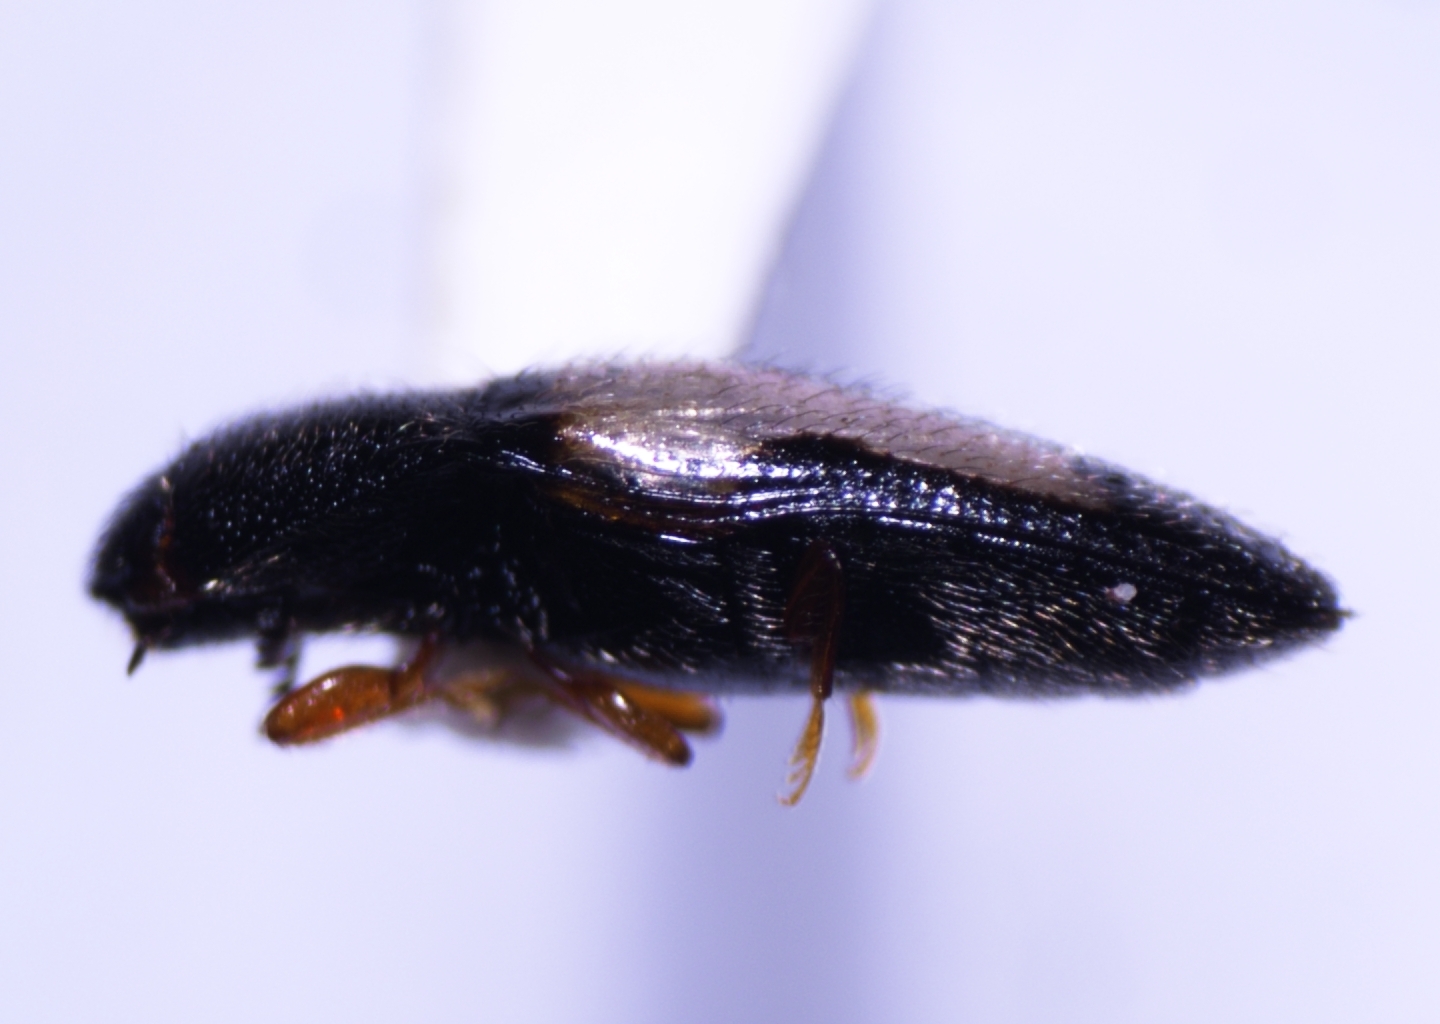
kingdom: Animalia
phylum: Arthropoda
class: Insecta
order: Coleoptera
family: Elateridae
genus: Drapetes
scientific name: Drapetes plagiatus
